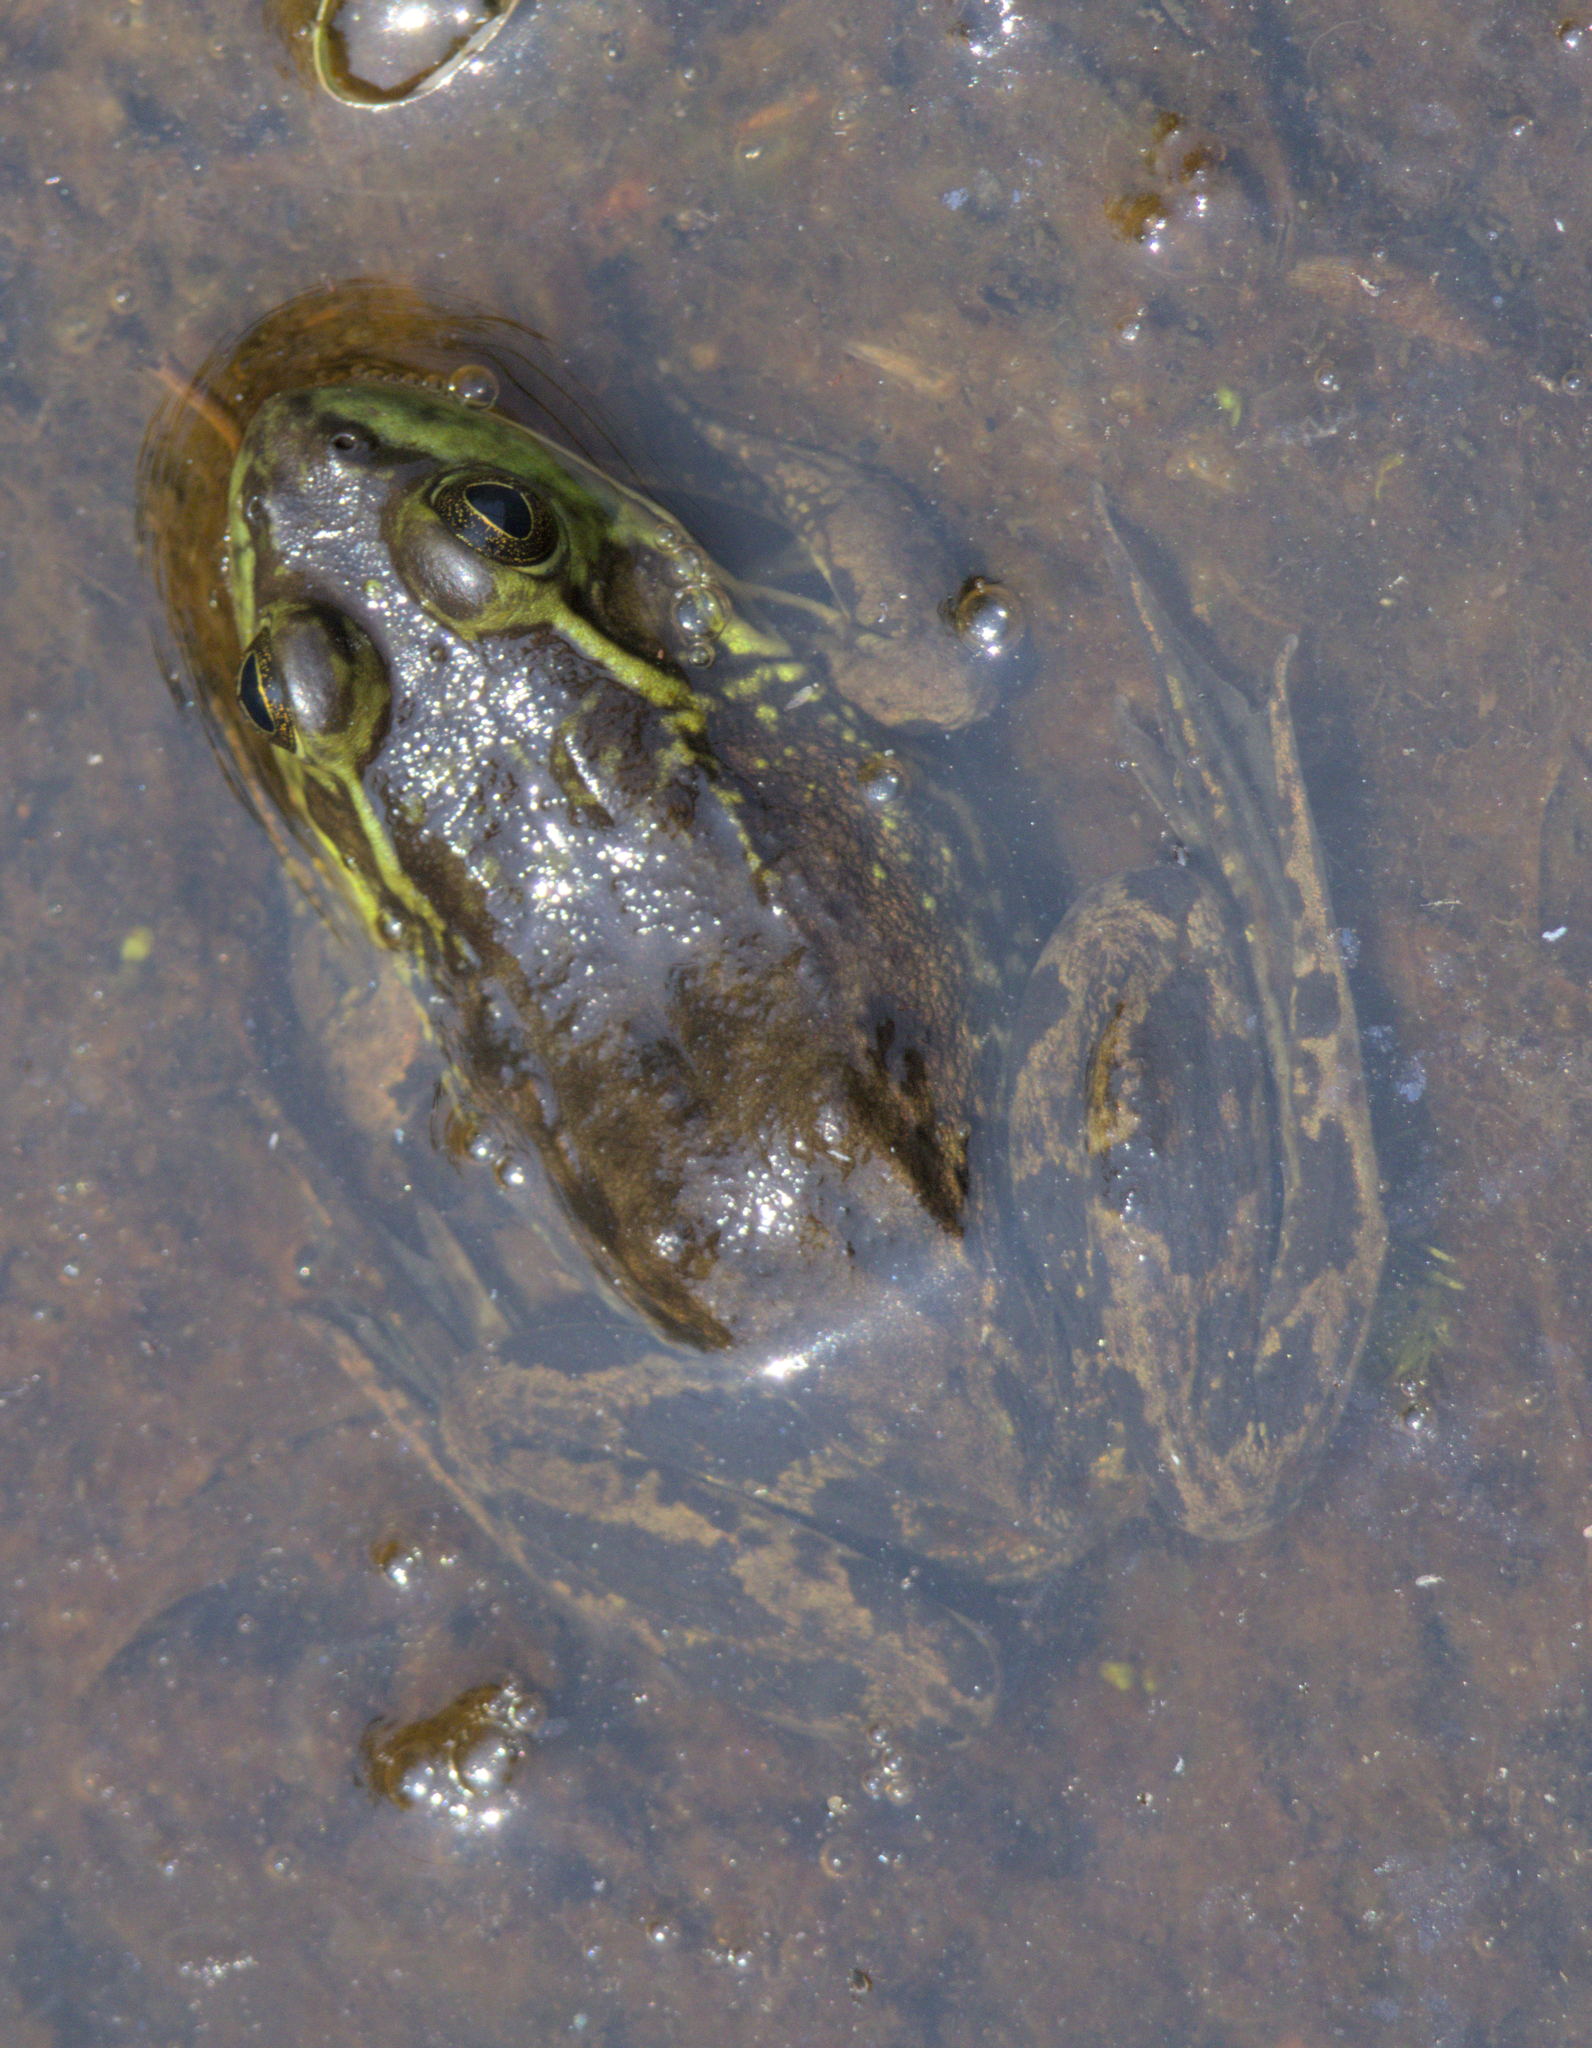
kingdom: Animalia
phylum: Chordata
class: Amphibia
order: Anura
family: Ranidae
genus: Lithobates
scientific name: Lithobates septentrionalis
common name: Mink frog
